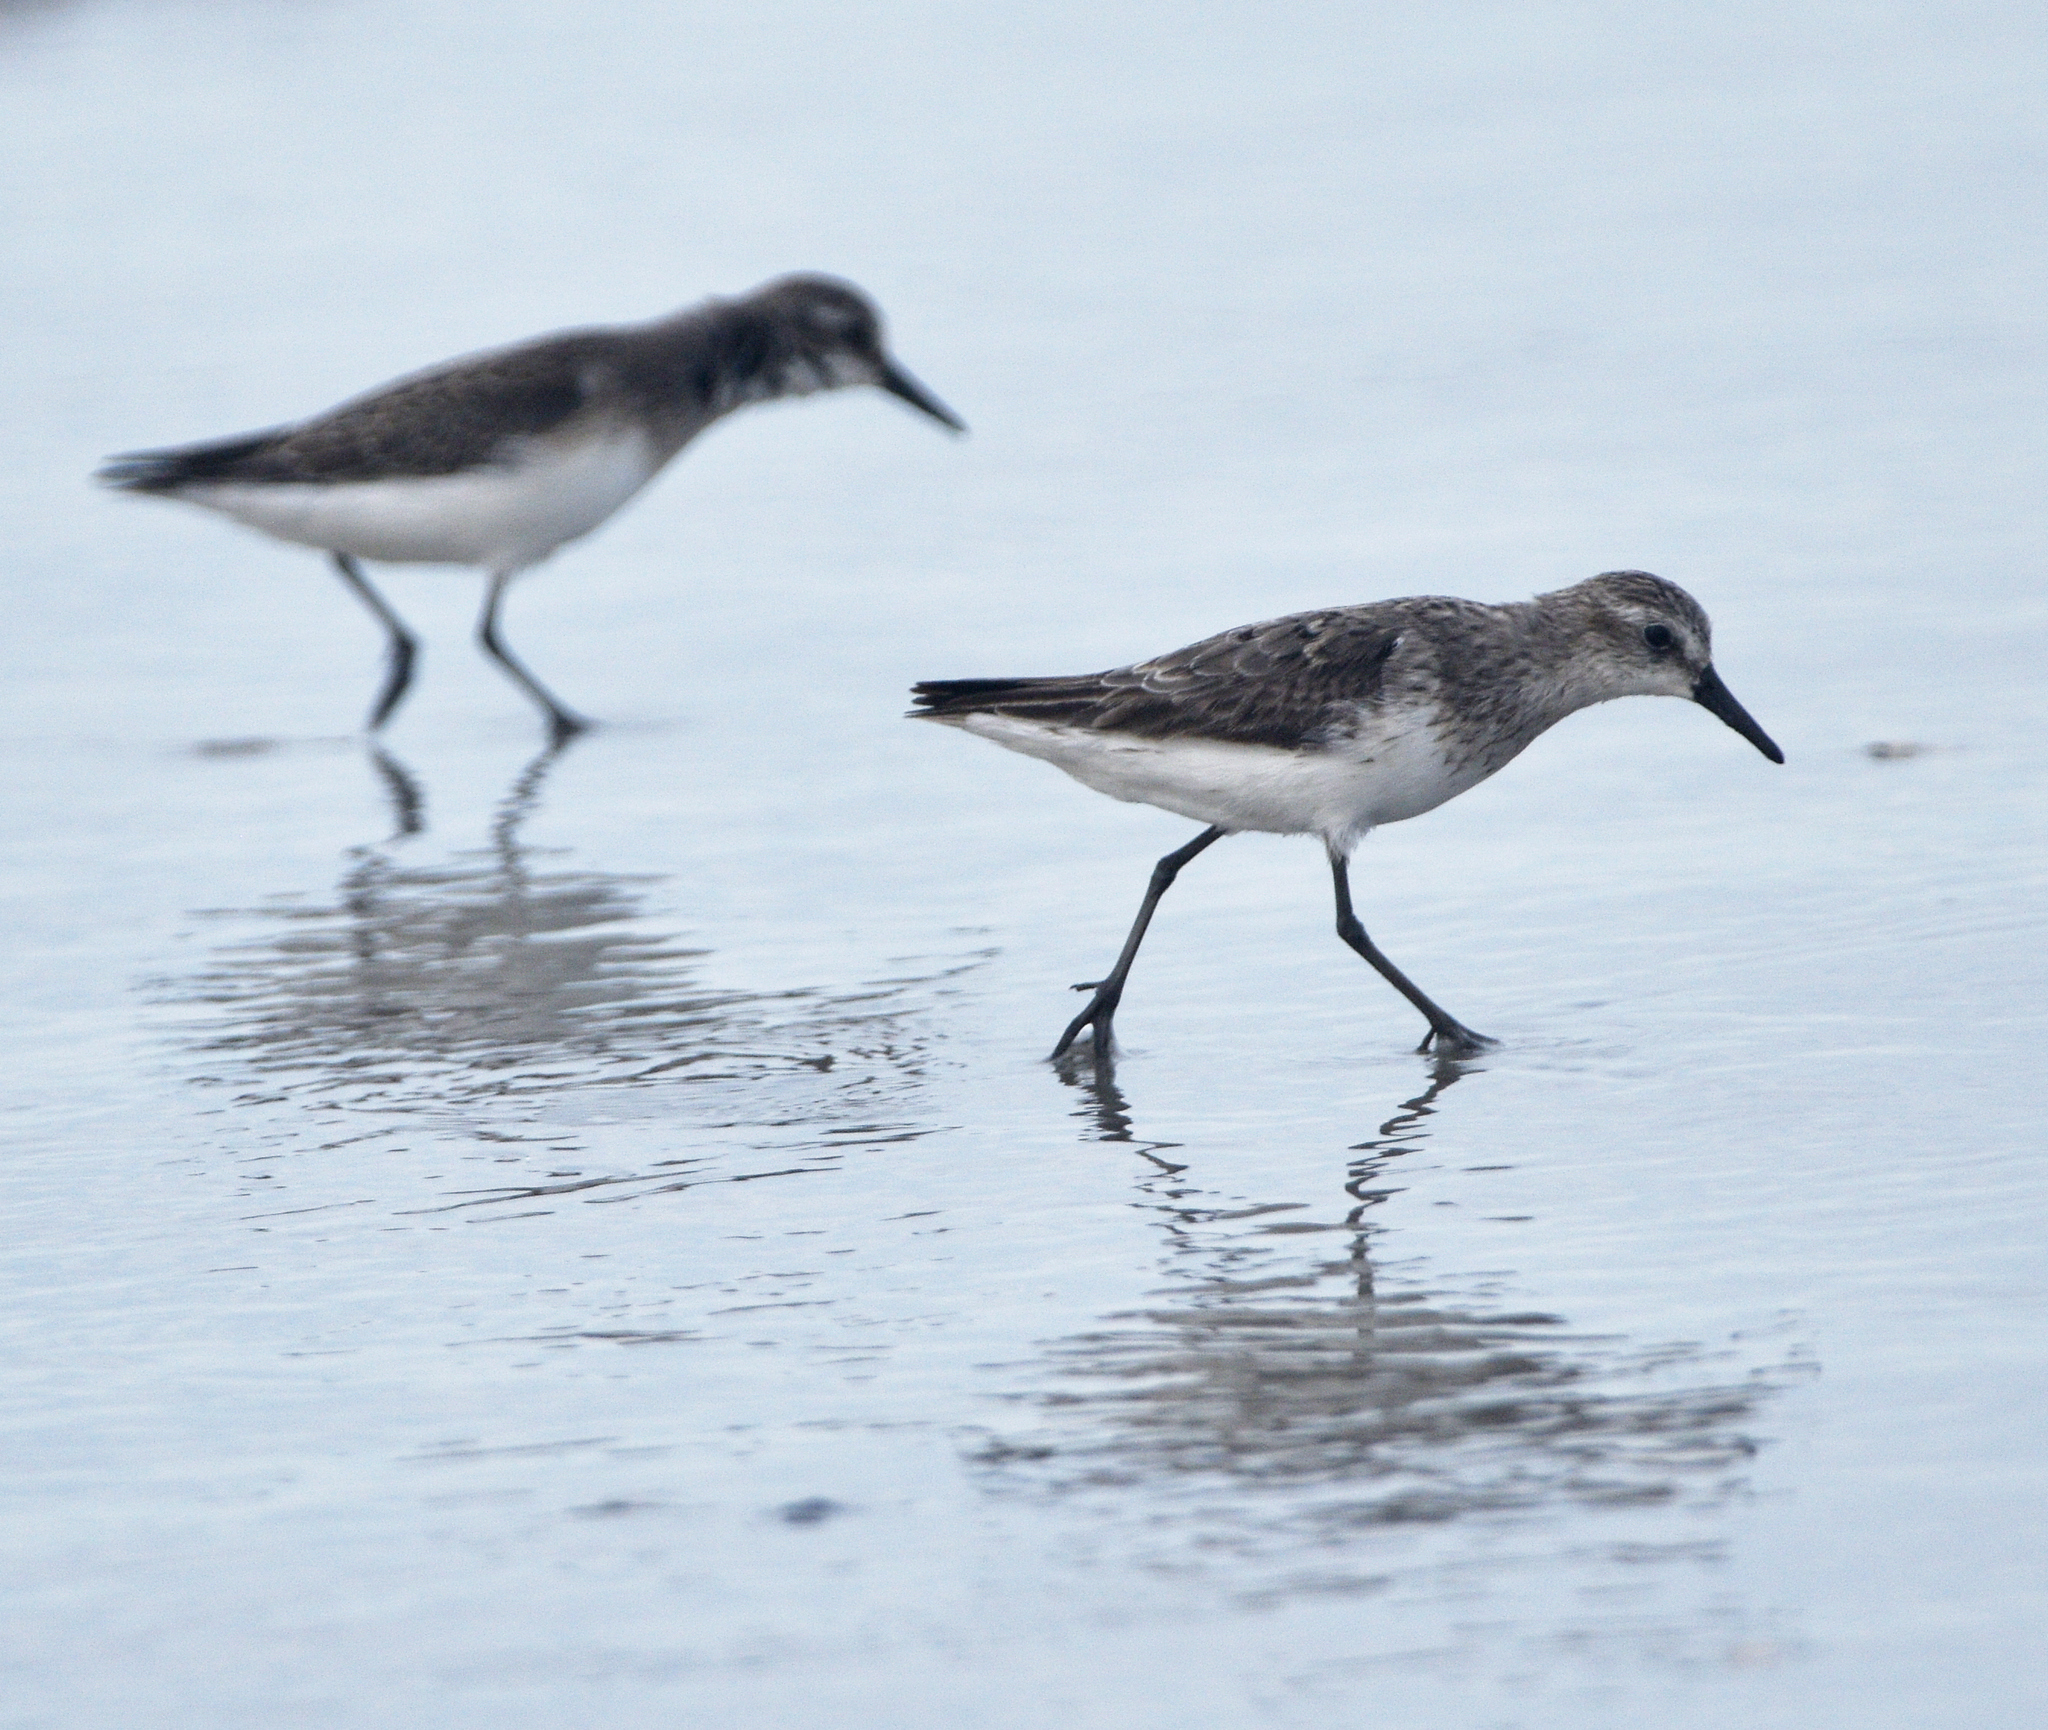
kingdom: Animalia
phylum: Chordata
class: Aves
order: Charadriiformes
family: Scolopacidae
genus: Calidris
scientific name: Calidris pusilla
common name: Semipalmated sandpiper
